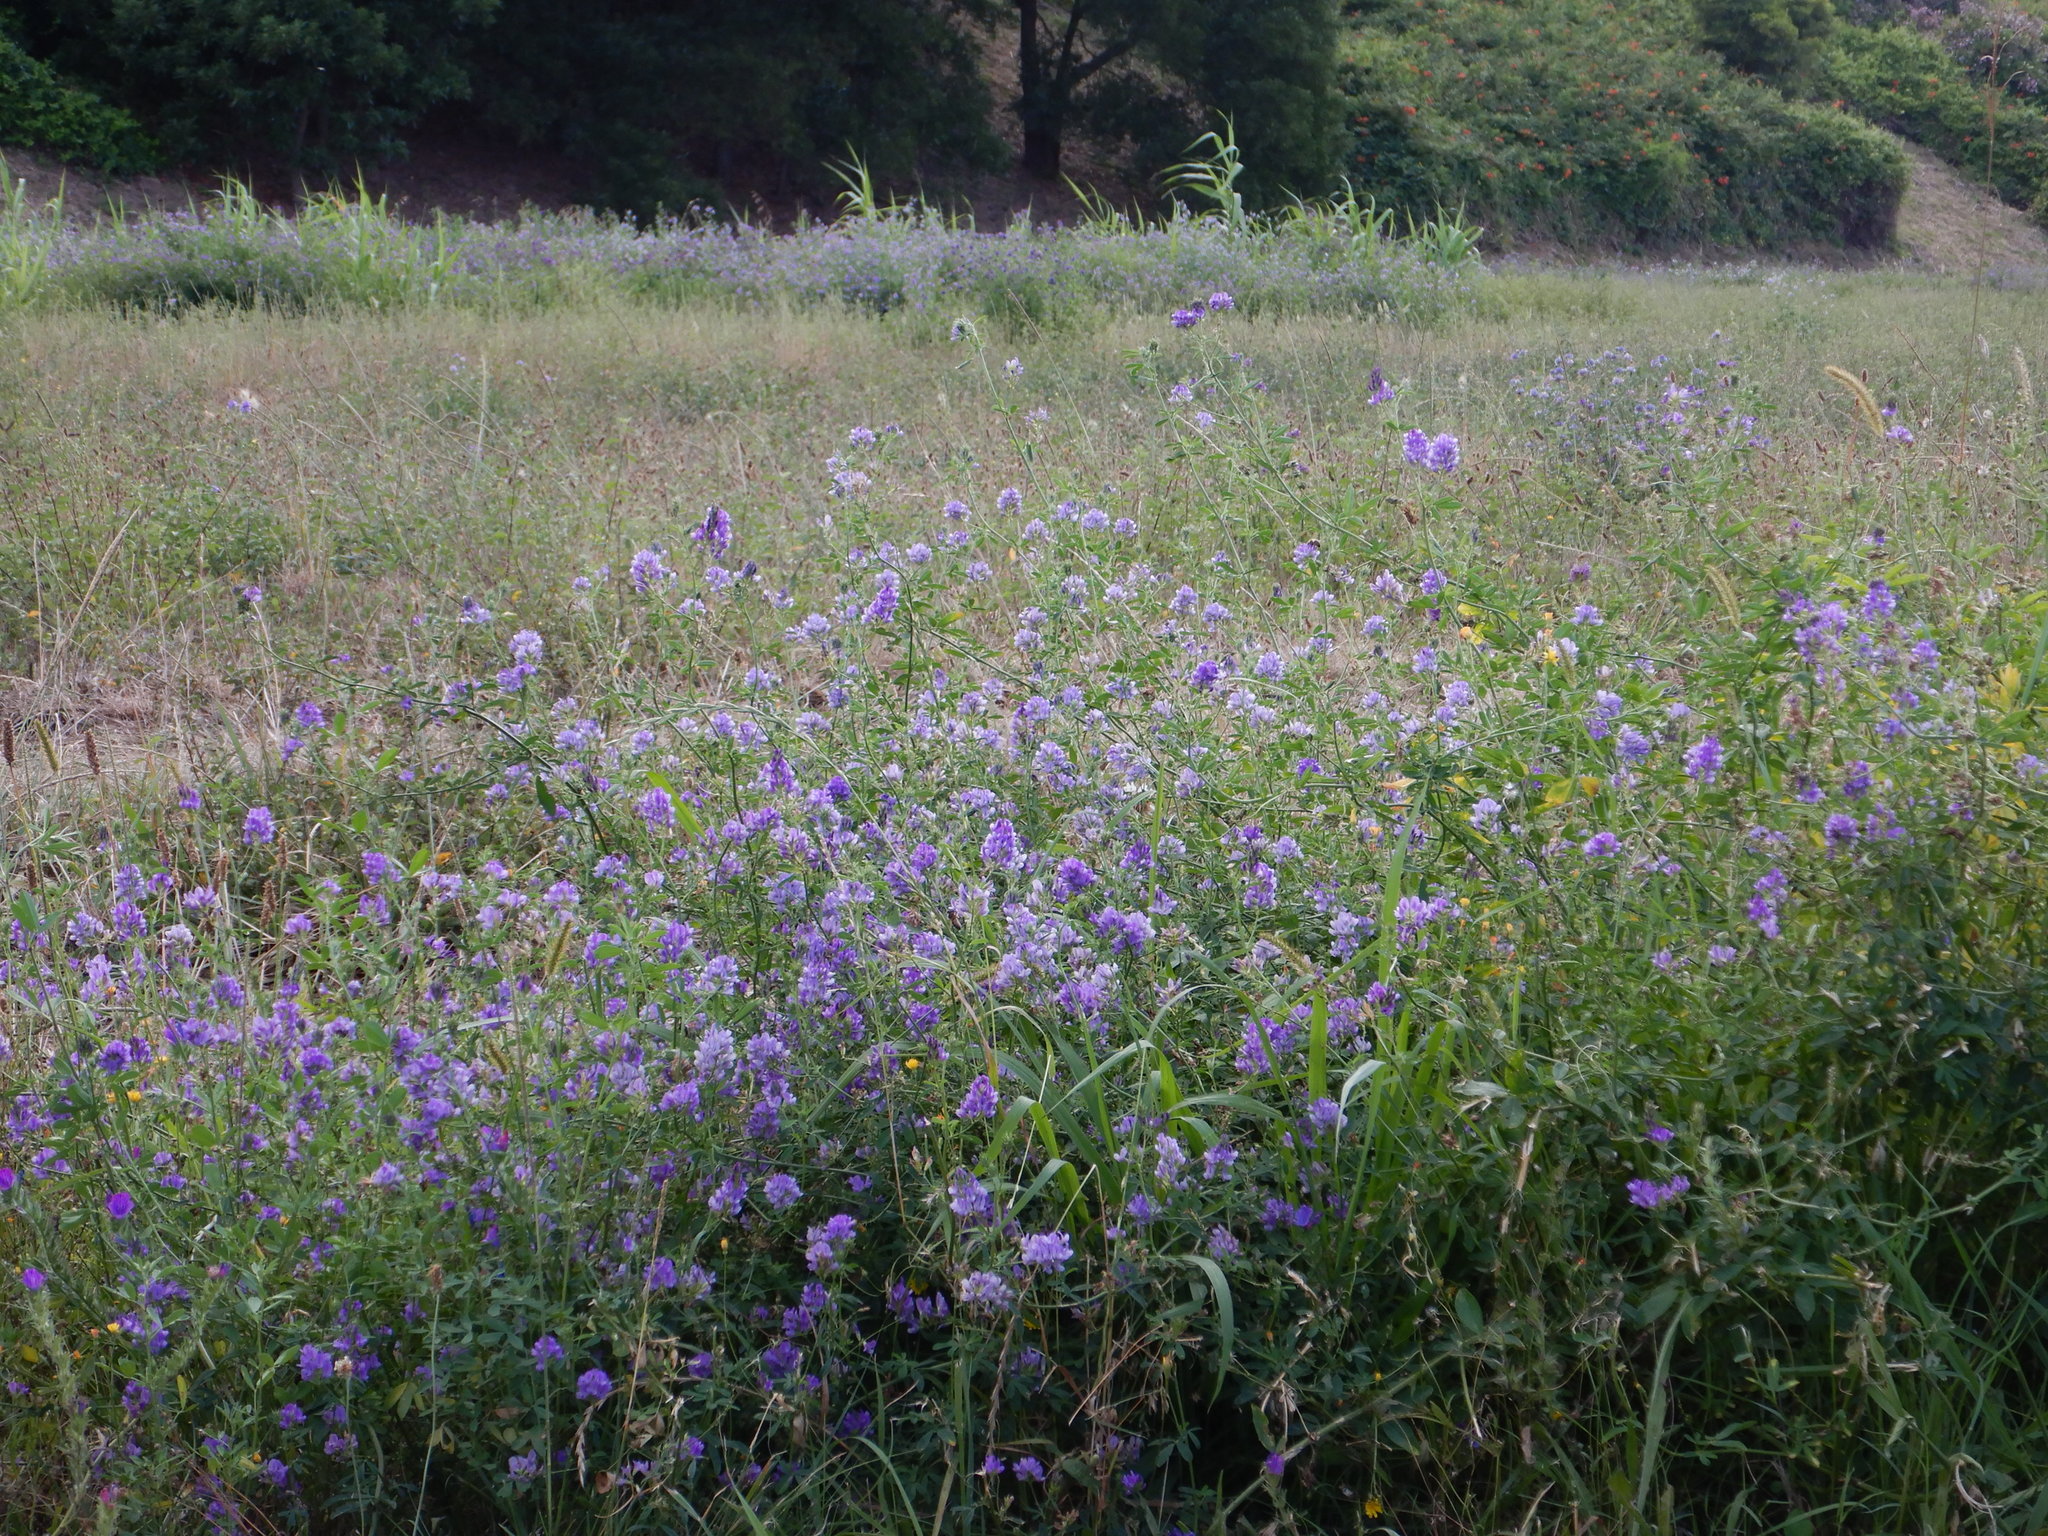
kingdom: Plantae
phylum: Tracheophyta
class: Magnoliopsida
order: Fabales
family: Fabaceae
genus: Medicago
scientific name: Medicago sativa
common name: Alfalfa
